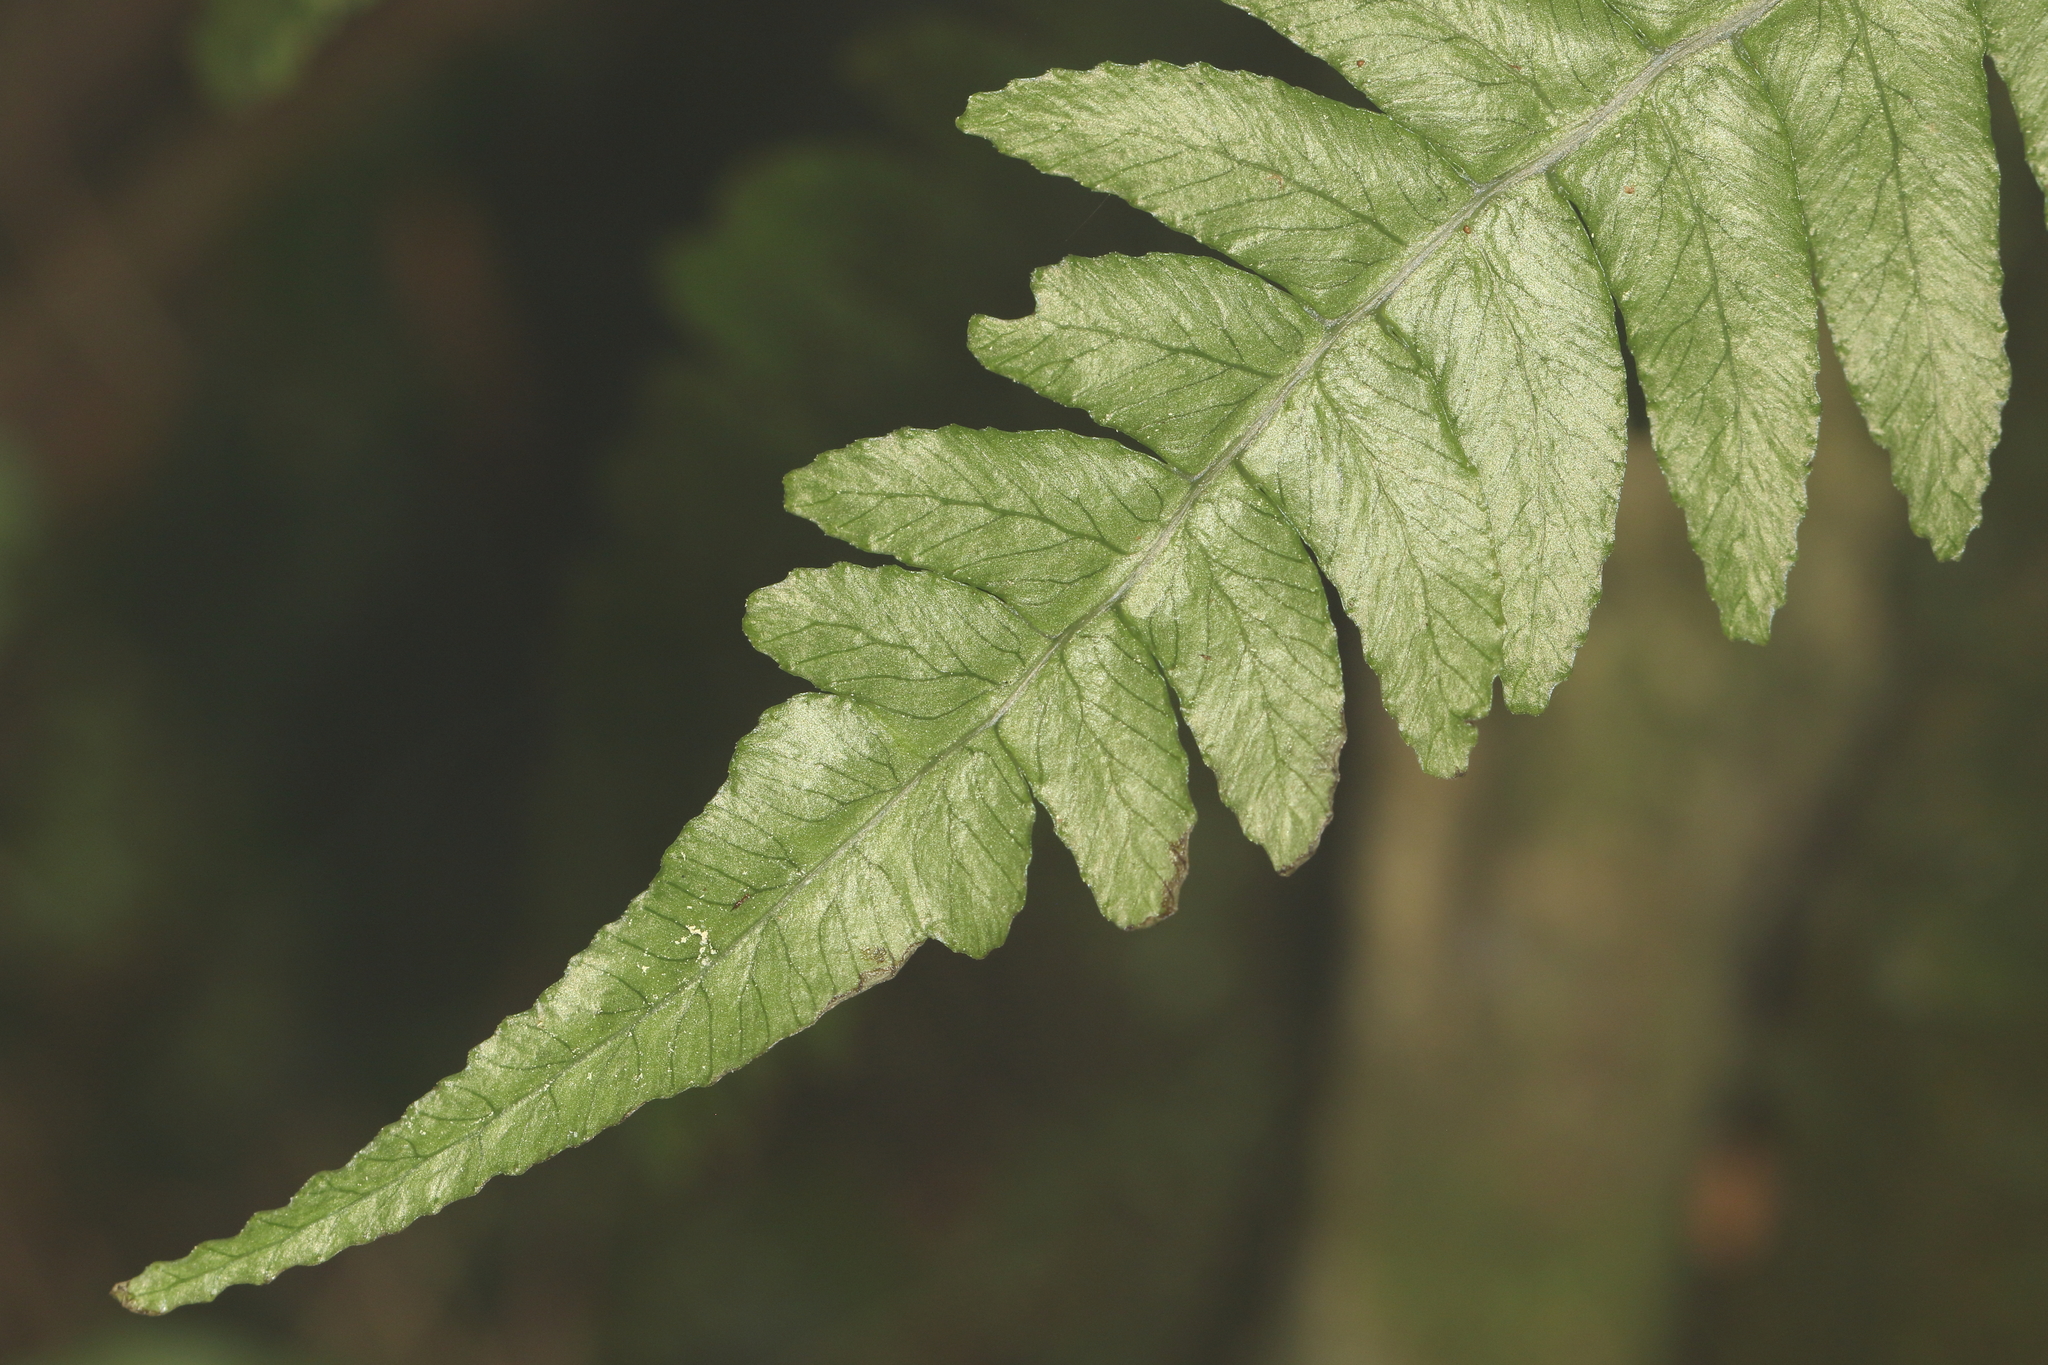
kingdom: Plantae
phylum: Tracheophyta
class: Polypodiopsida
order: Polypodiales
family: Blechnaceae
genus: Austroblechnum
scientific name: Austroblechnum lanceolatum
